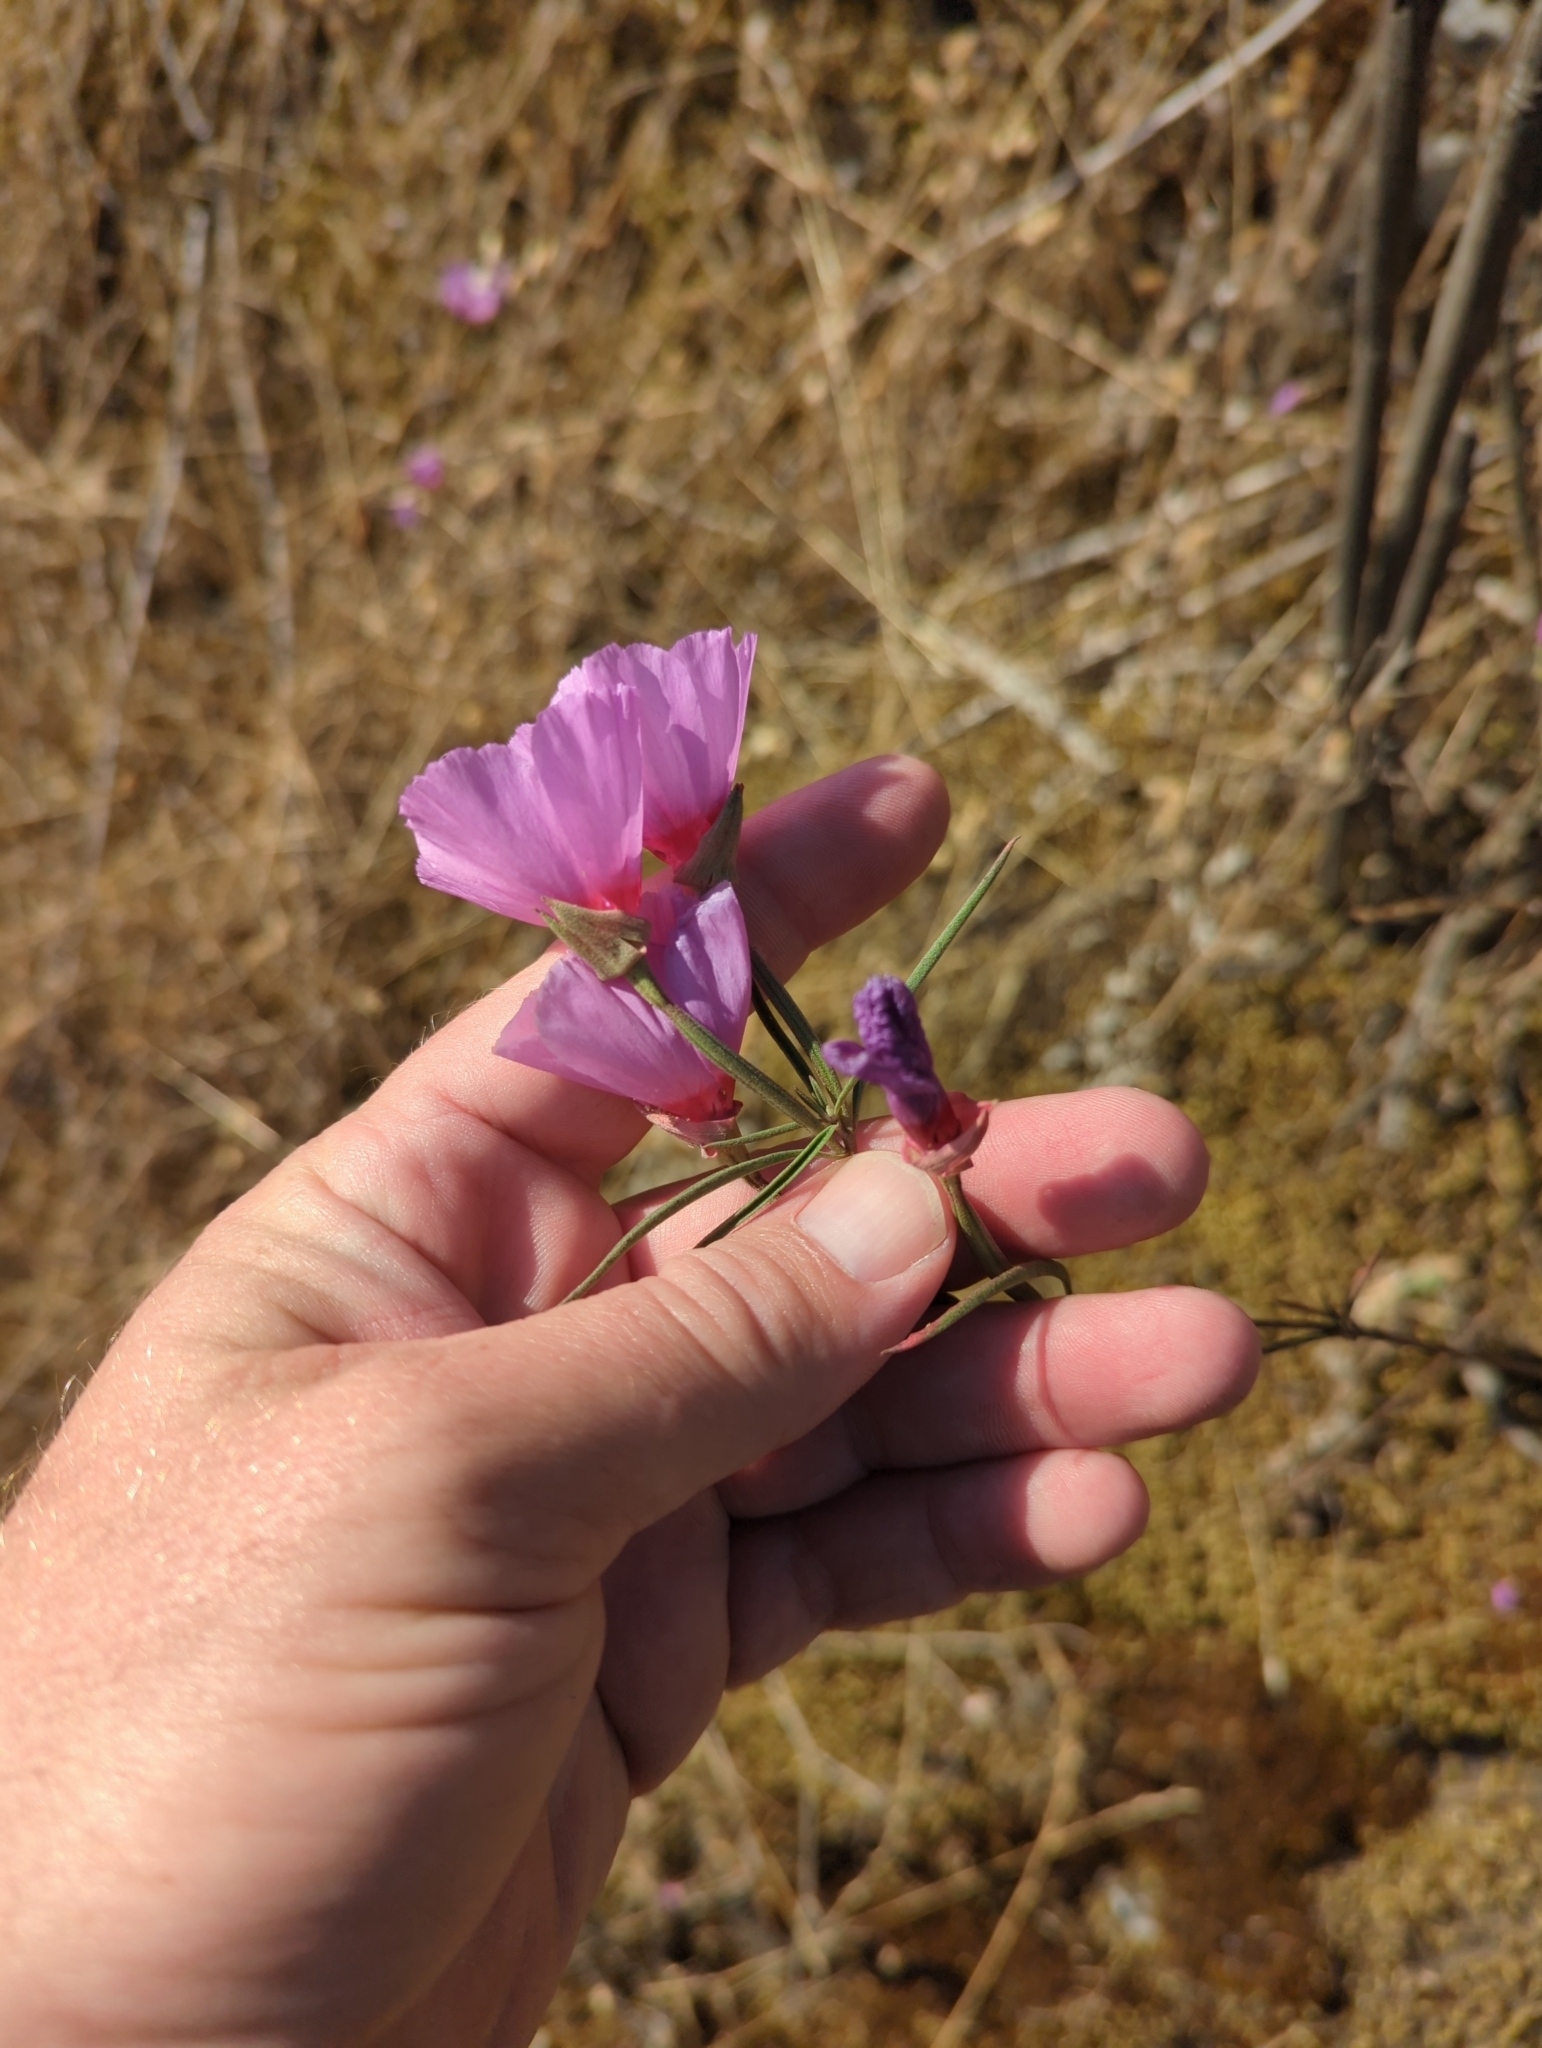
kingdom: Plantae
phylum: Tracheophyta
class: Magnoliopsida
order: Myrtales
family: Onagraceae
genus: Clarkia
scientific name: Clarkia rubicunda
